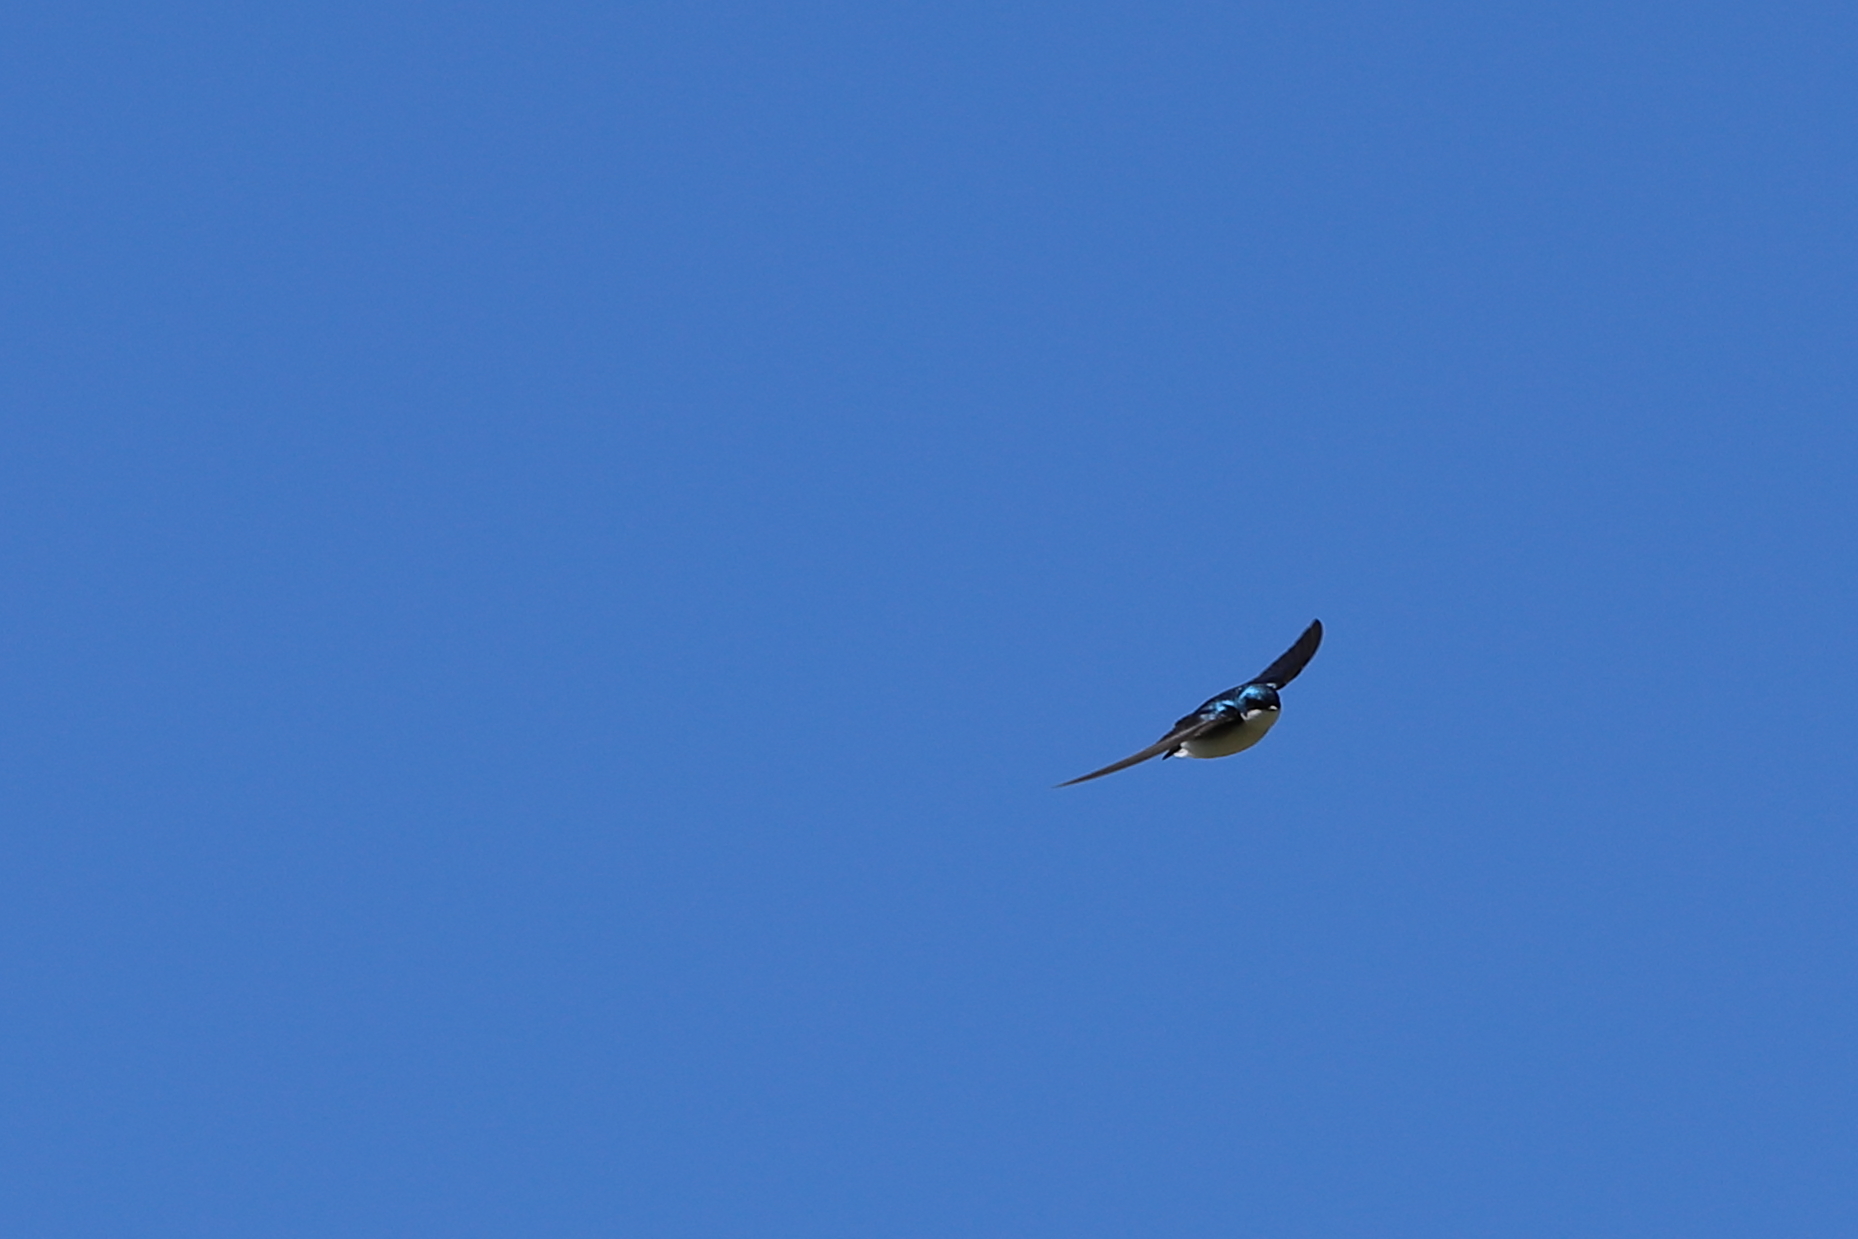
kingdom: Animalia
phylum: Chordata
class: Aves
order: Passeriformes
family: Hirundinidae
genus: Tachycineta
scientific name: Tachycineta bicolor
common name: Tree swallow
